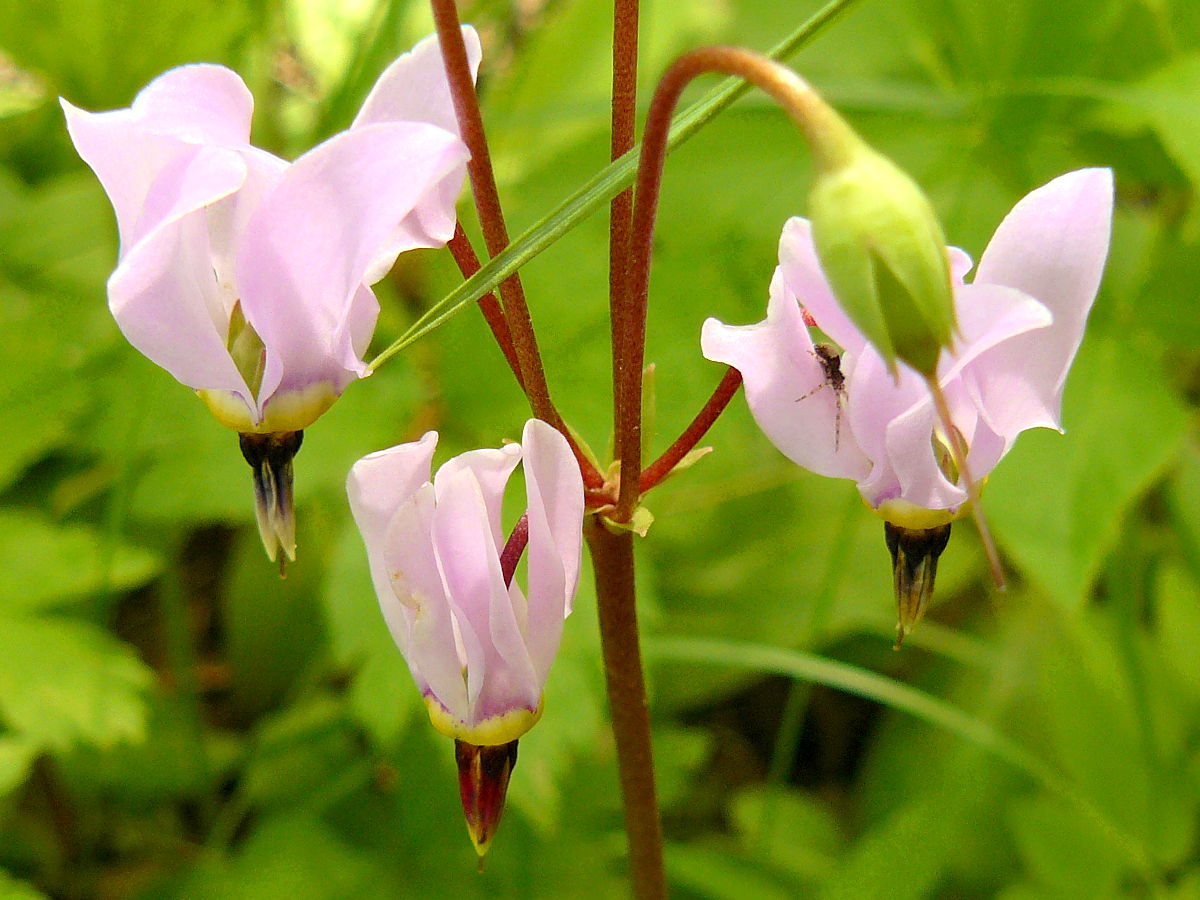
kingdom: Plantae
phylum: Tracheophyta
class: Magnoliopsida
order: Ericales
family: Primulaceae
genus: Dodecatheon
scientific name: Dodecatheon meadia
